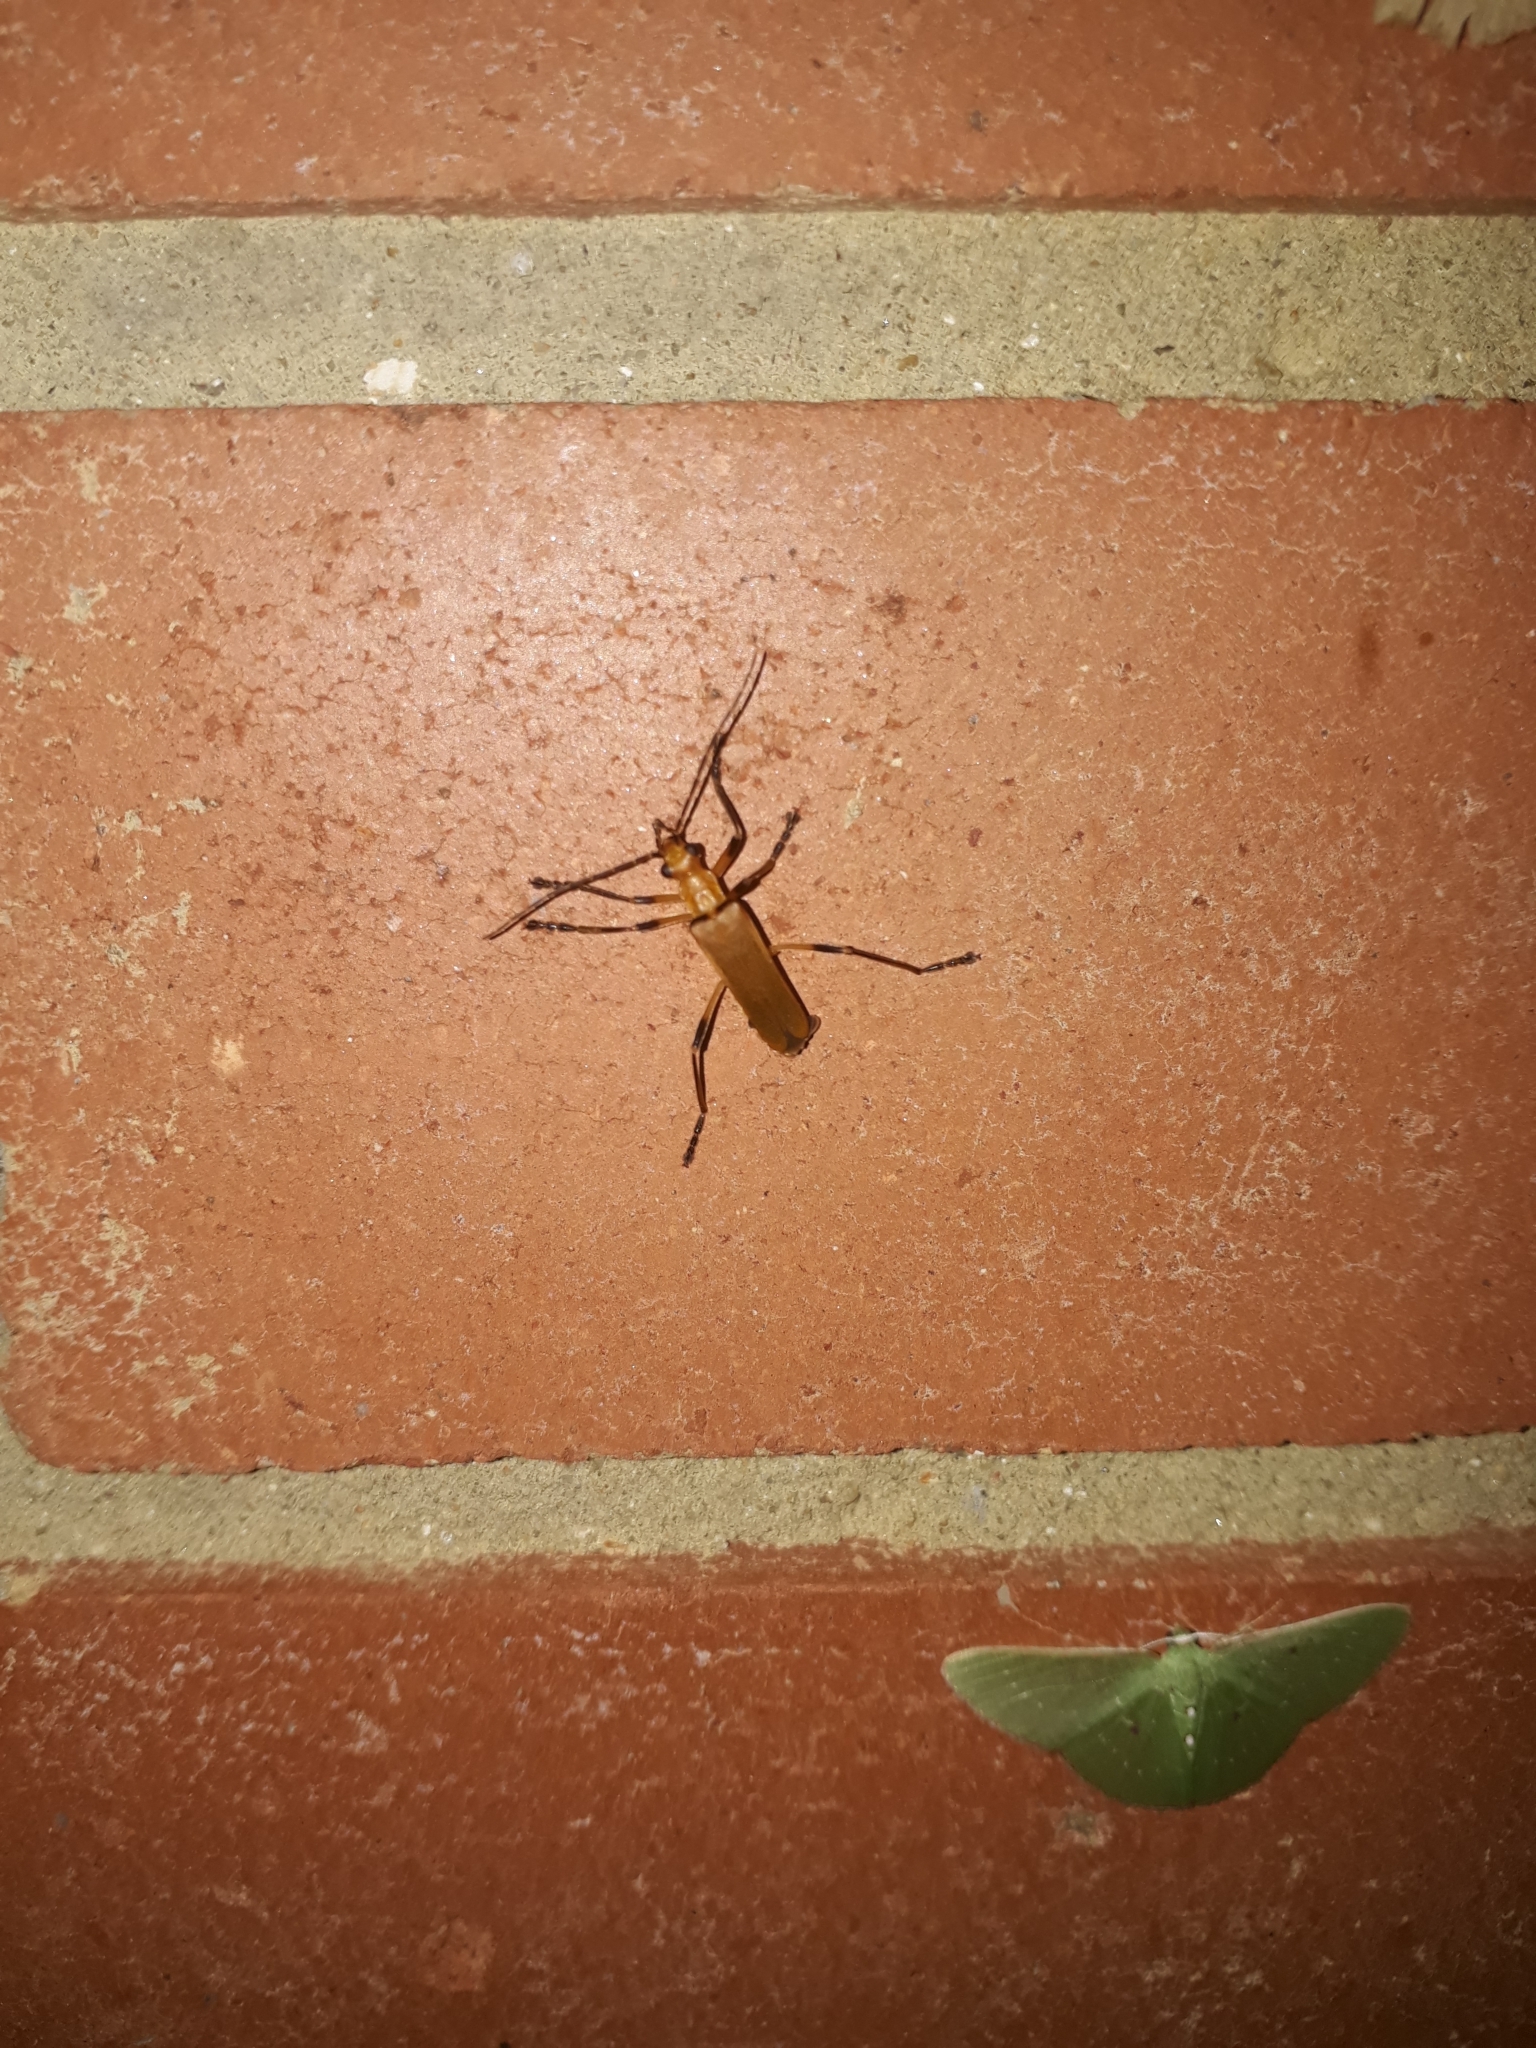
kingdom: Animalia
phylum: Arthropoda
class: Insecta
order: Coleoptera
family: Cantharidae
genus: Chauliognathus
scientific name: Chauliognathus
